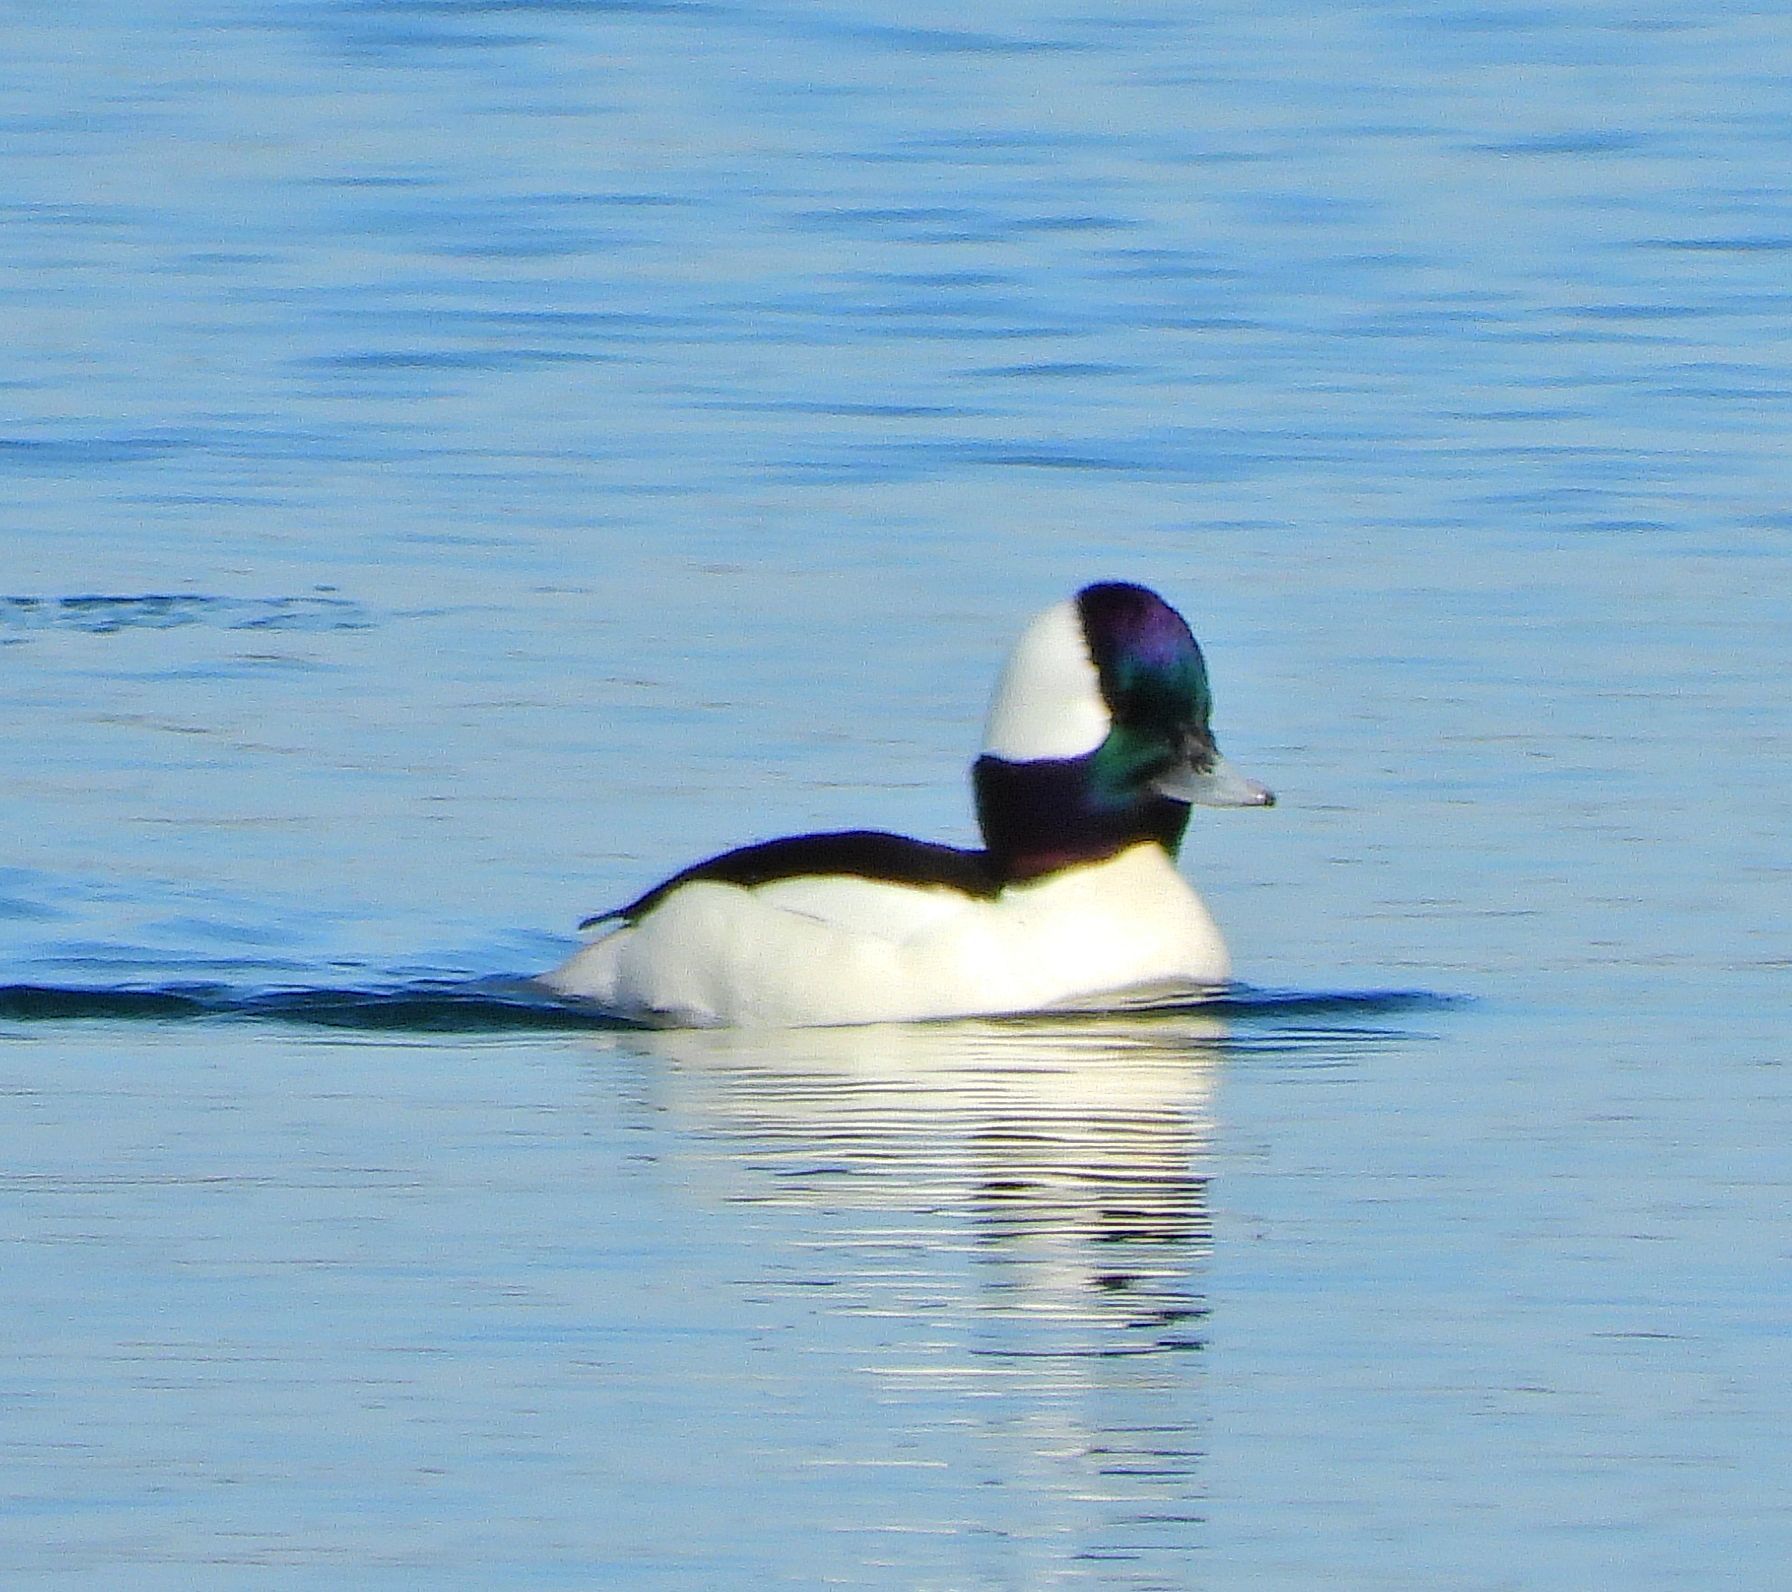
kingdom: Animalia
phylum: Chordata
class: Aves
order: Anseriformes
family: Anatidae
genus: Bucephala
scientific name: Bucephala albeola
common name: Bufflehead
